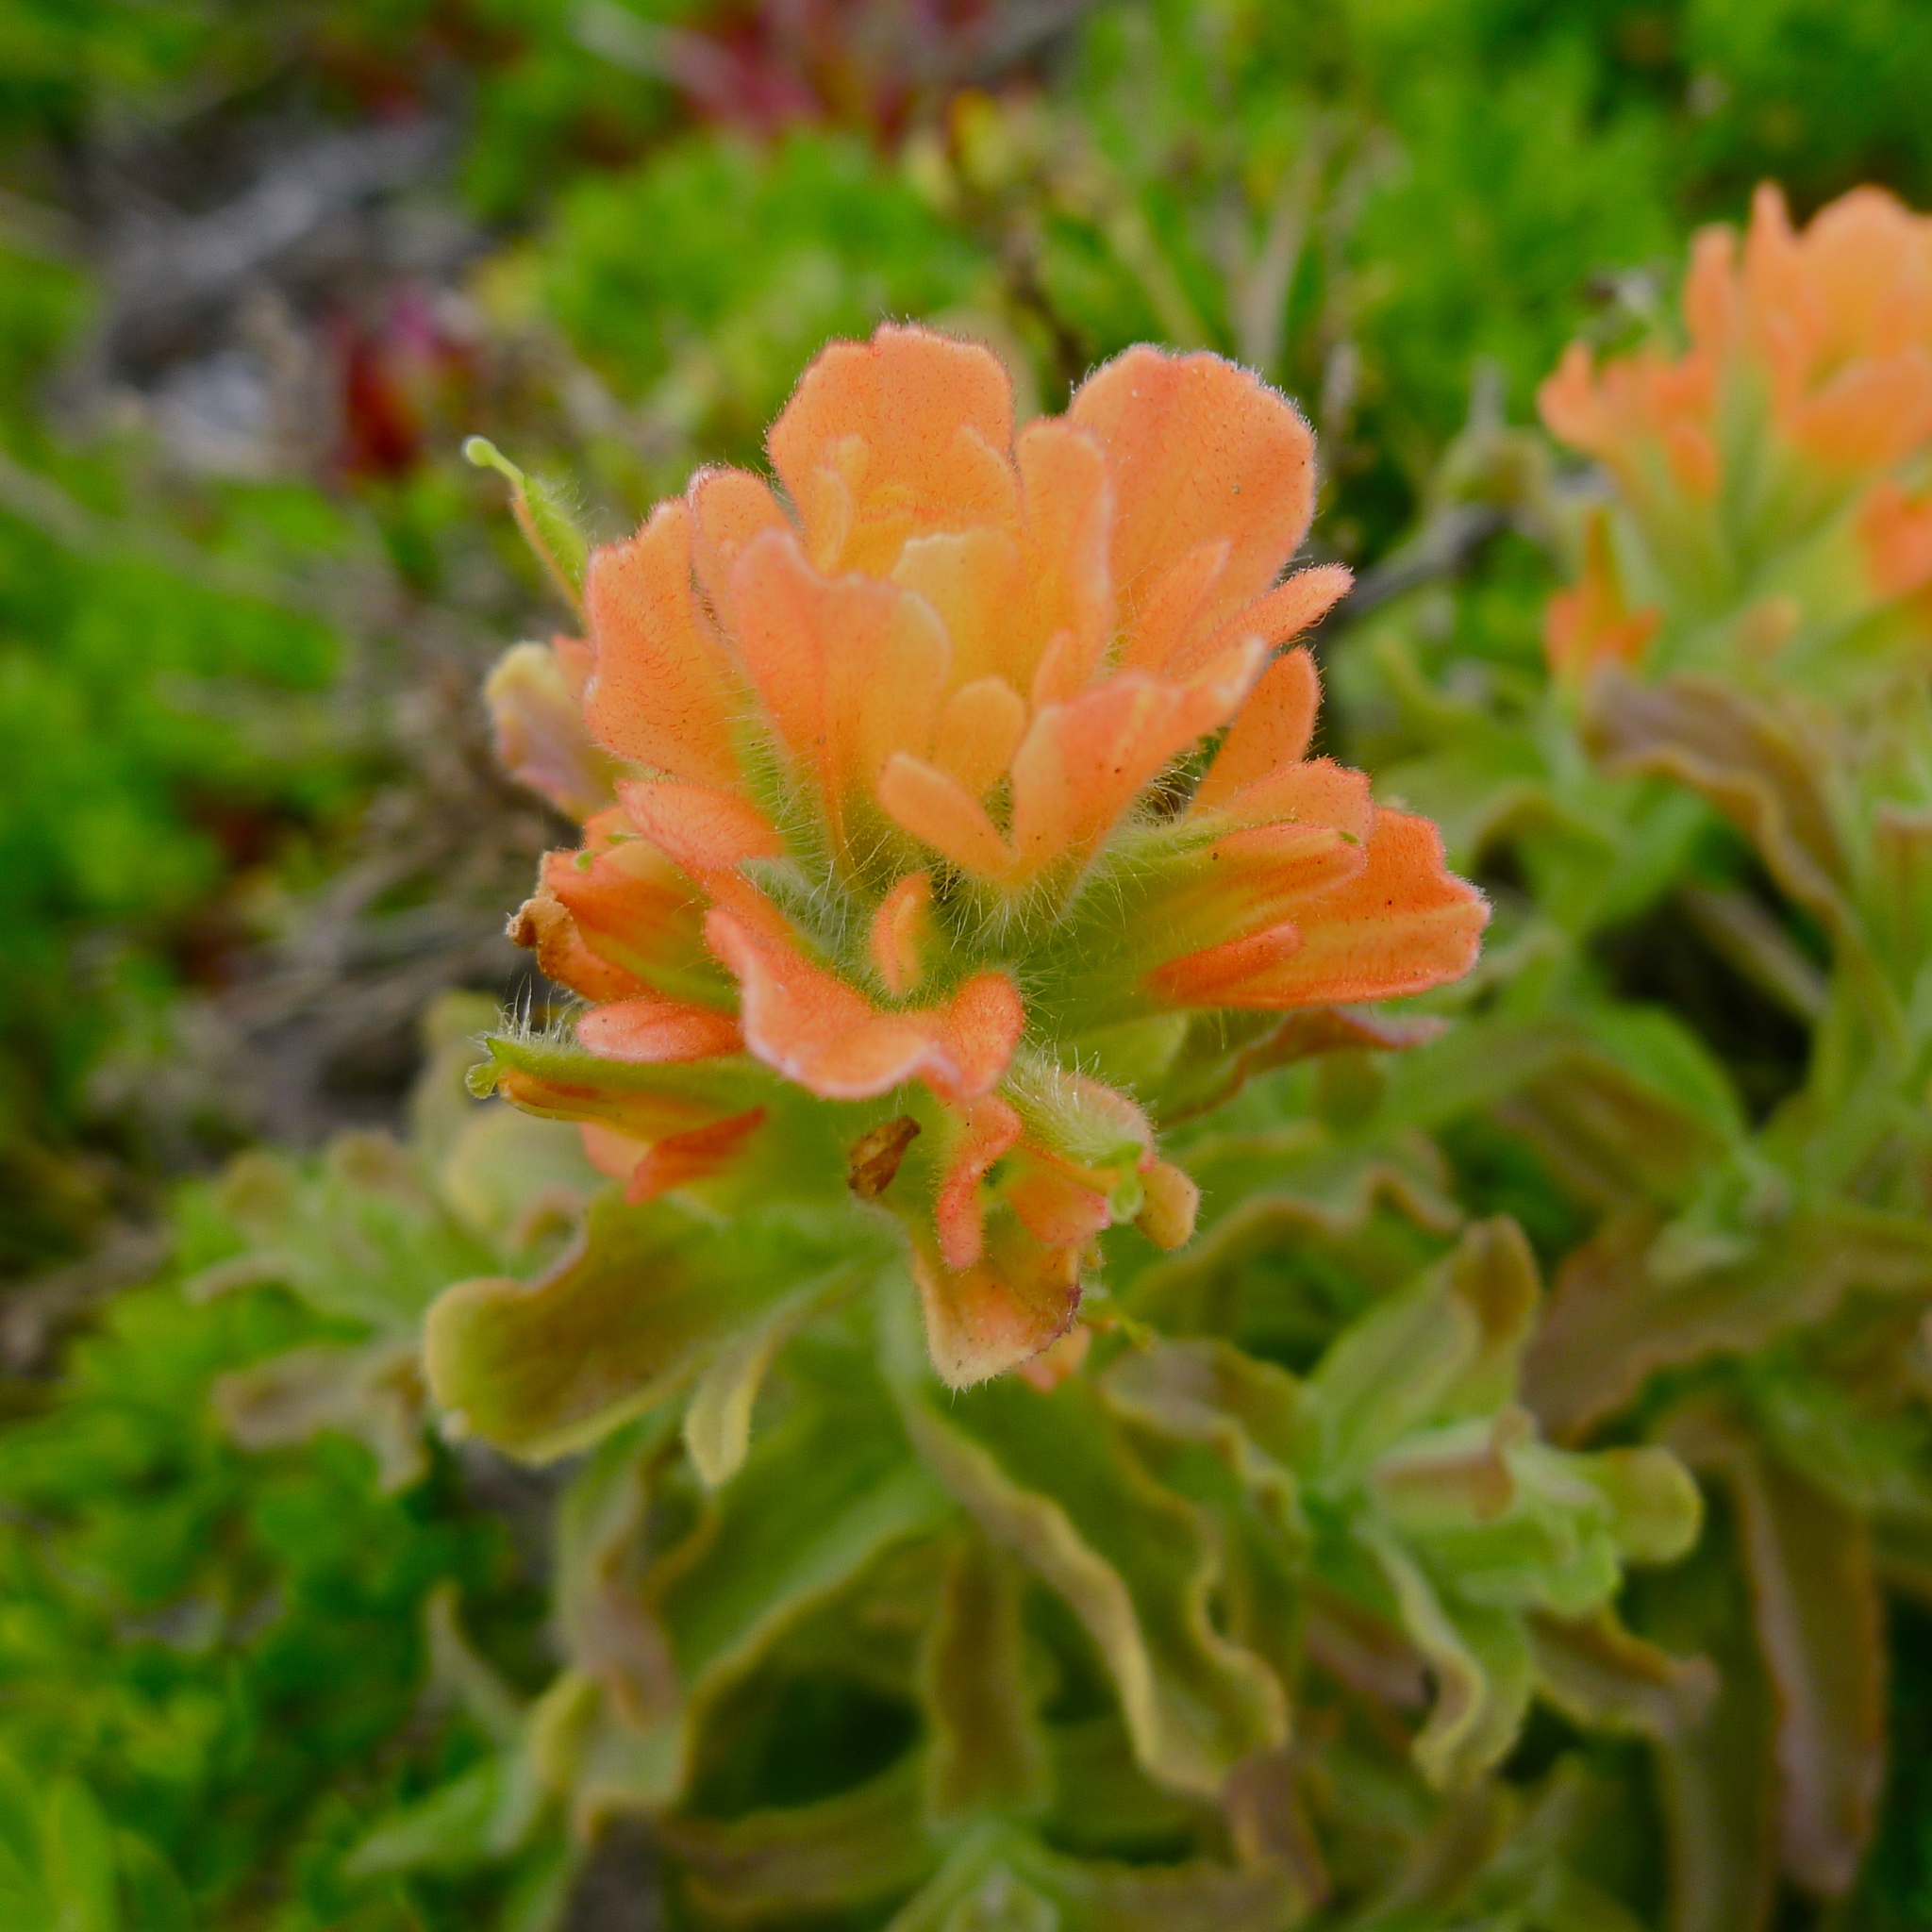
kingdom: Plantae
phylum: Tracheophyta
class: Magnoliopsida
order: Lamiales
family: Orobanchaceae
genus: Castilleja
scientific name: Castilleja latifolia
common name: Monterey indian paintbrush
